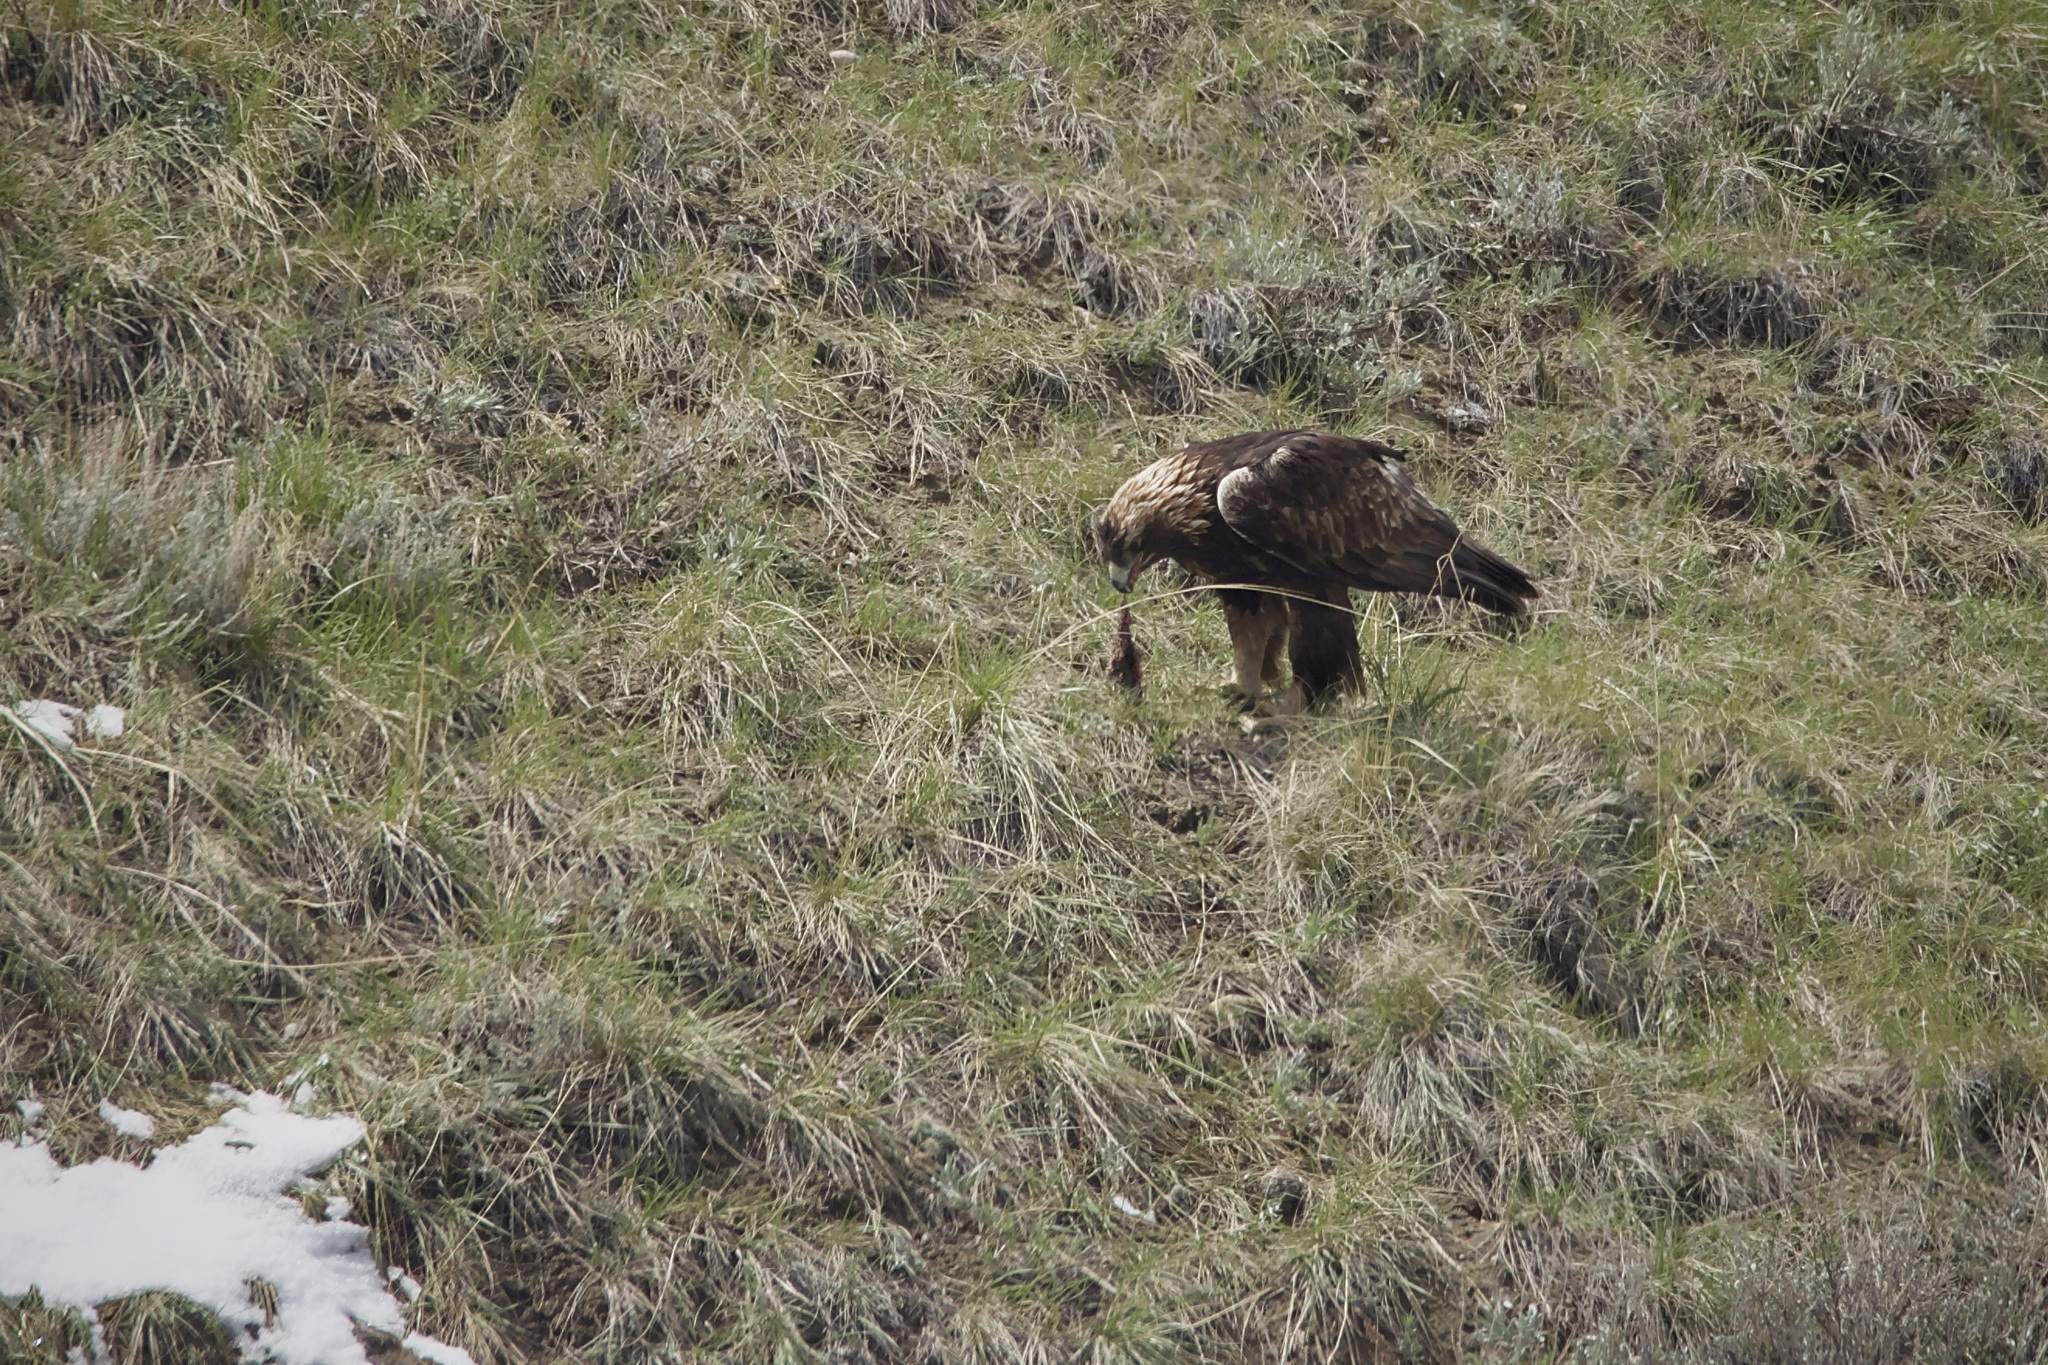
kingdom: Animalia
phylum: Chordata
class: Aves
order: Accipitriformes
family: Accipitridae
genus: Aquila
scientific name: Aquila chrysaetos
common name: Golden eagle
